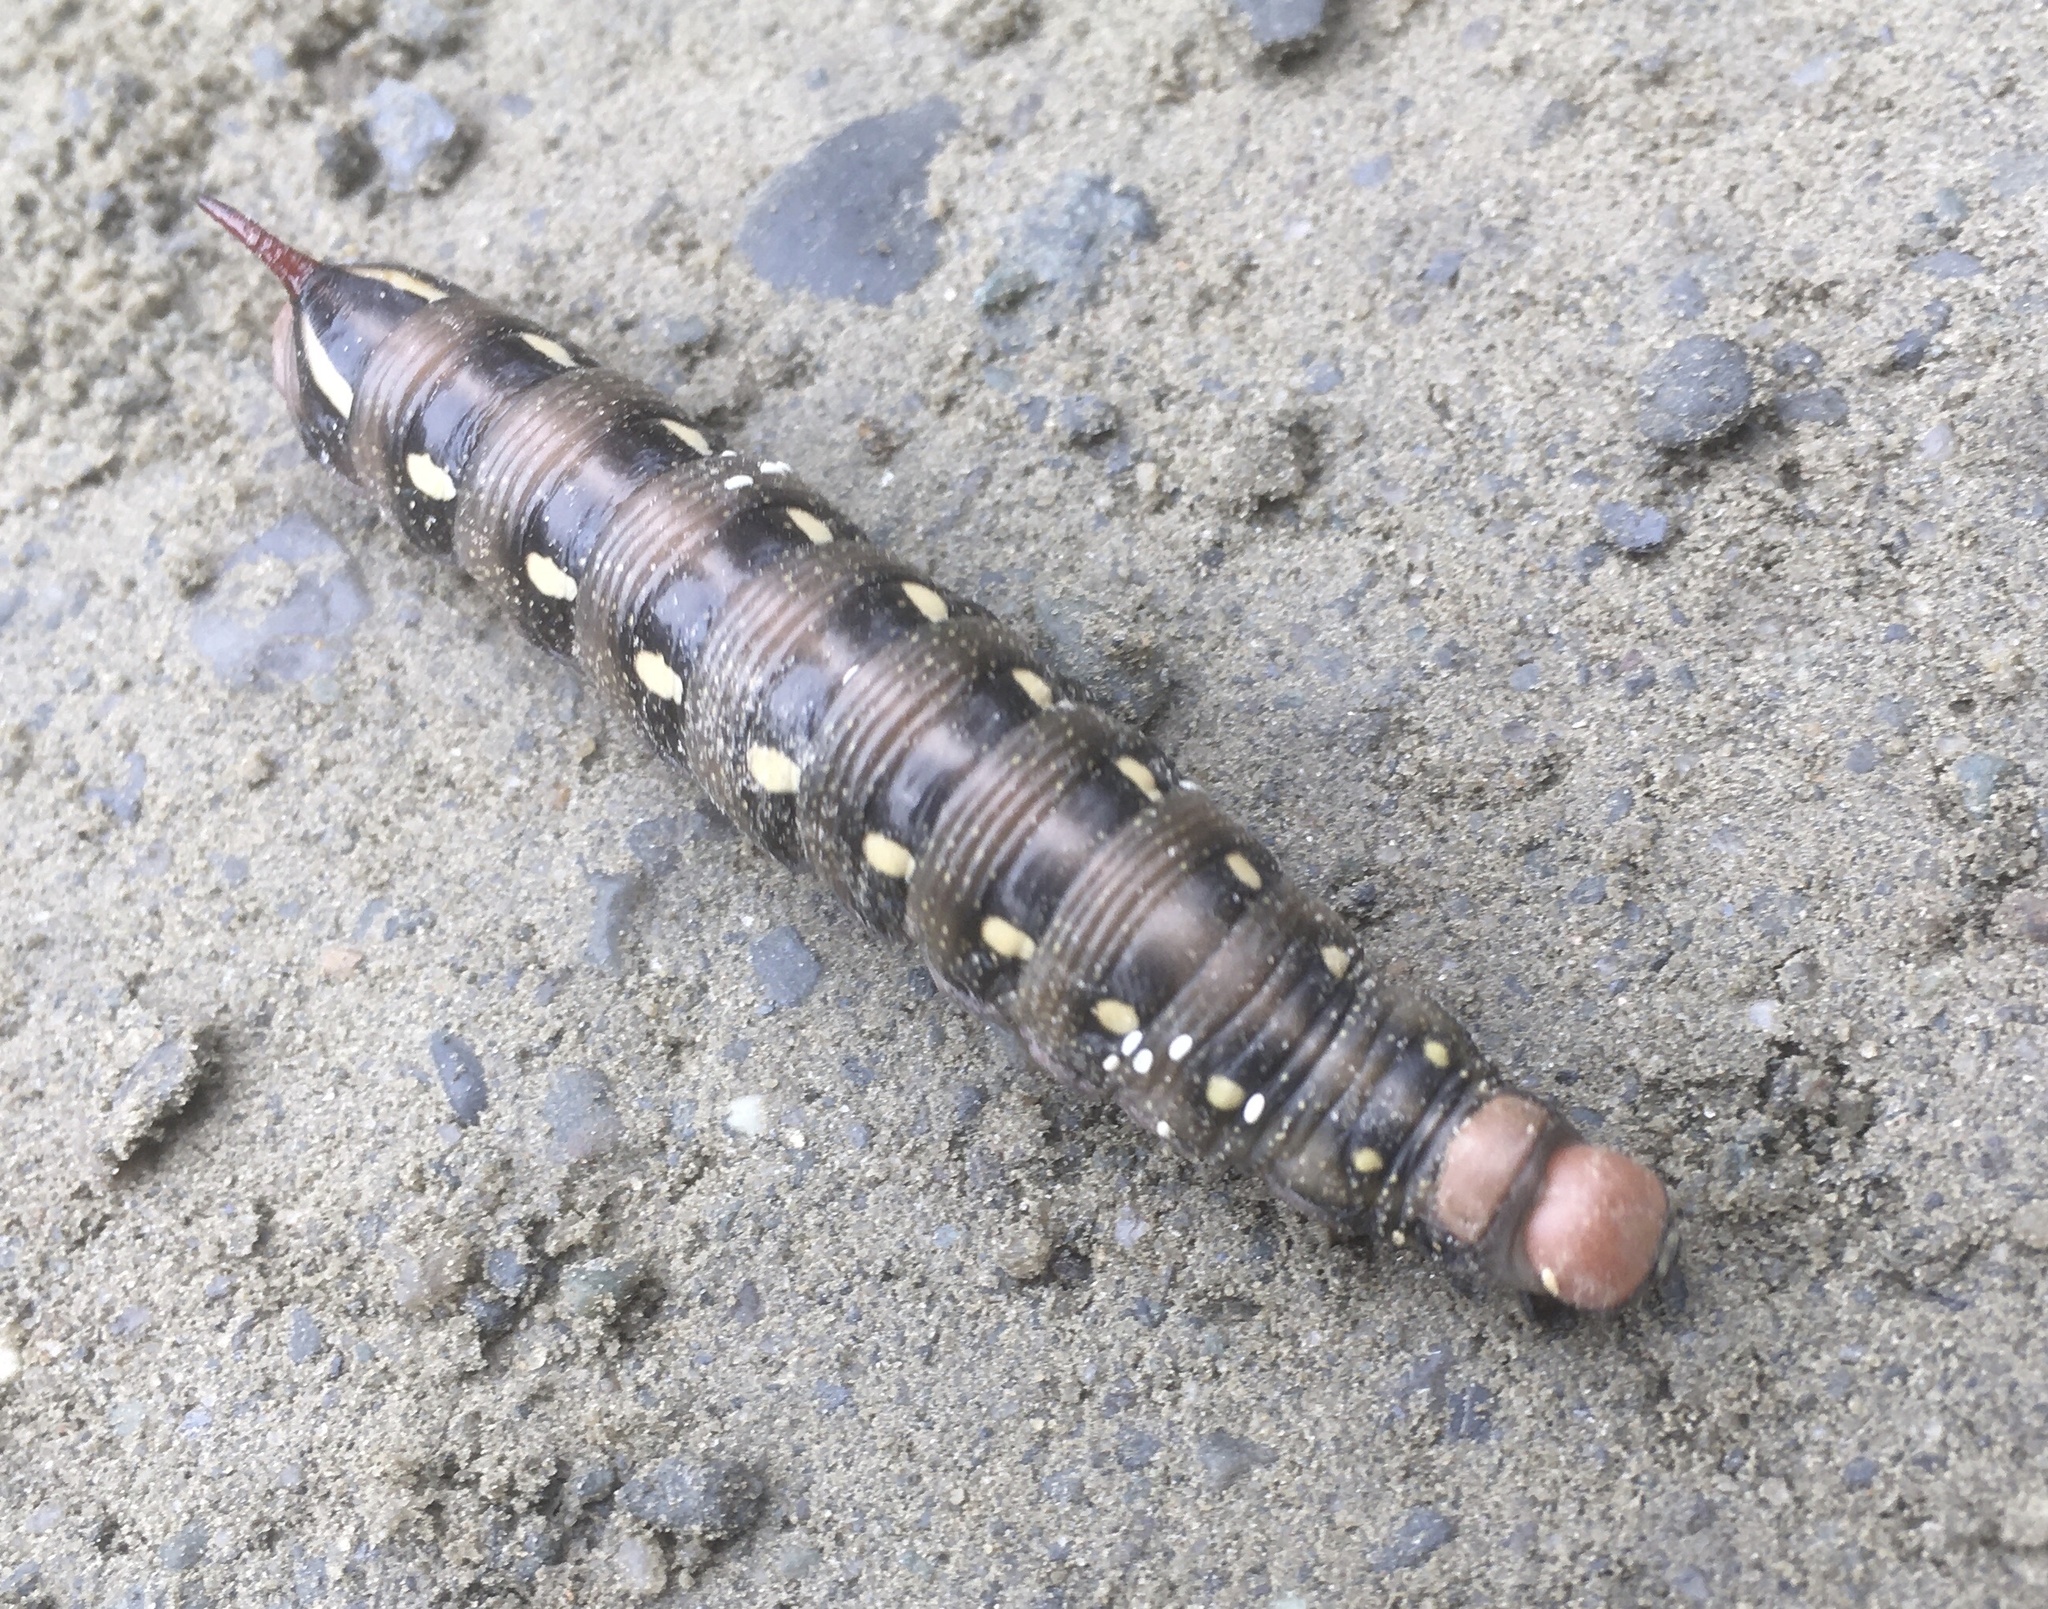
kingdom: Animalia
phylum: Arthropoda
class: Insecta
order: Lepidoptera
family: Sphingidae
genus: Hyles
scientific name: Hyles gallii
